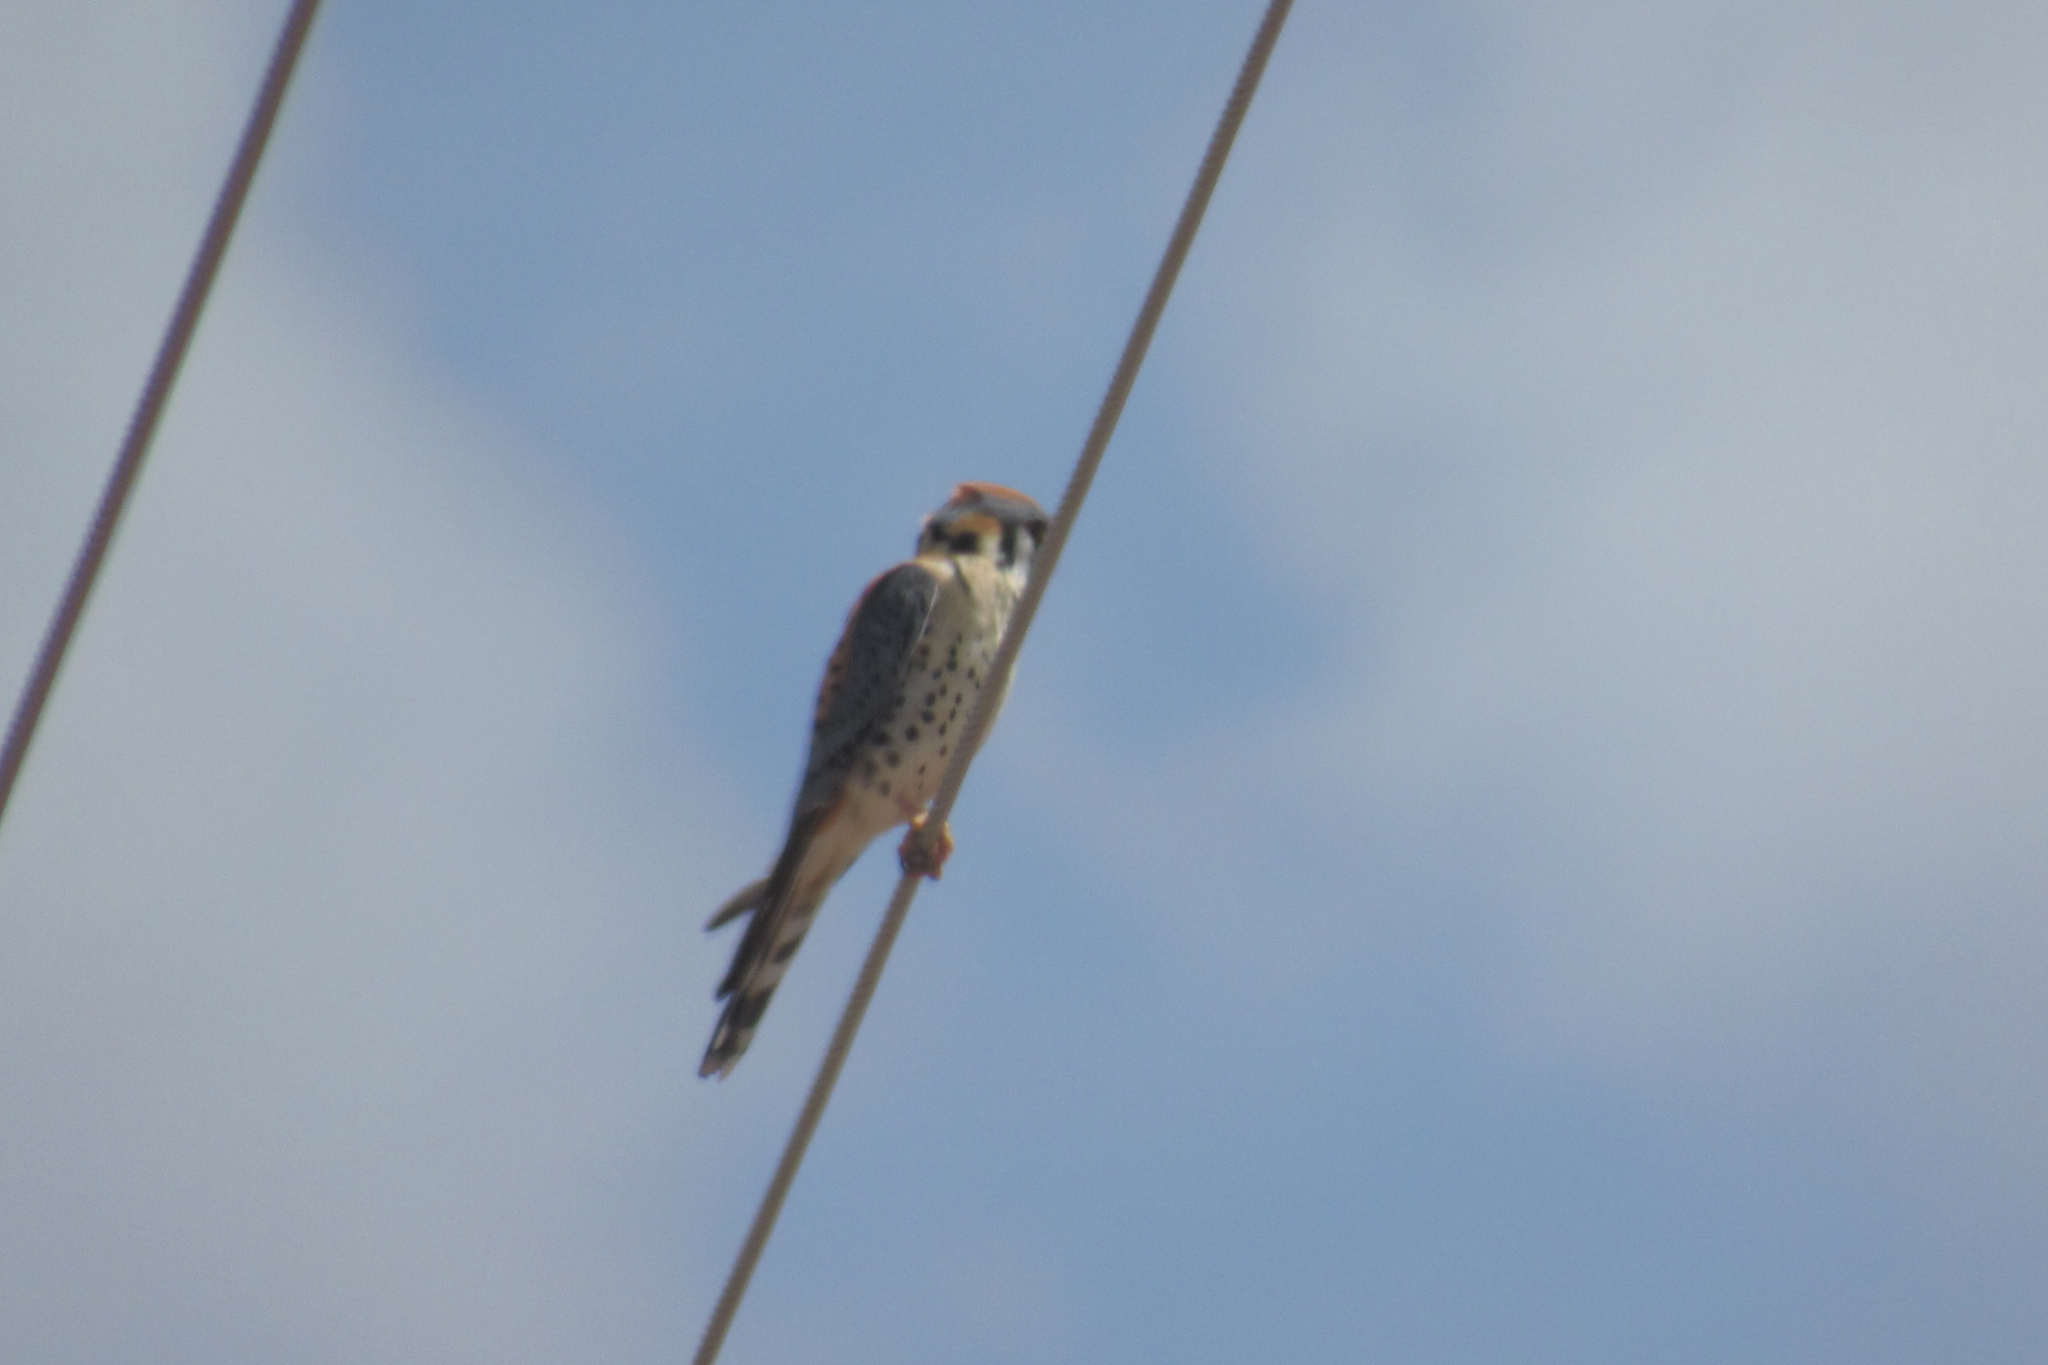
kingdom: Animalia
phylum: Chordata
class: Aves
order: Falconiformes
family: Falconidae
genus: Falco
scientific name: Falco sparverius
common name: American kestrel
